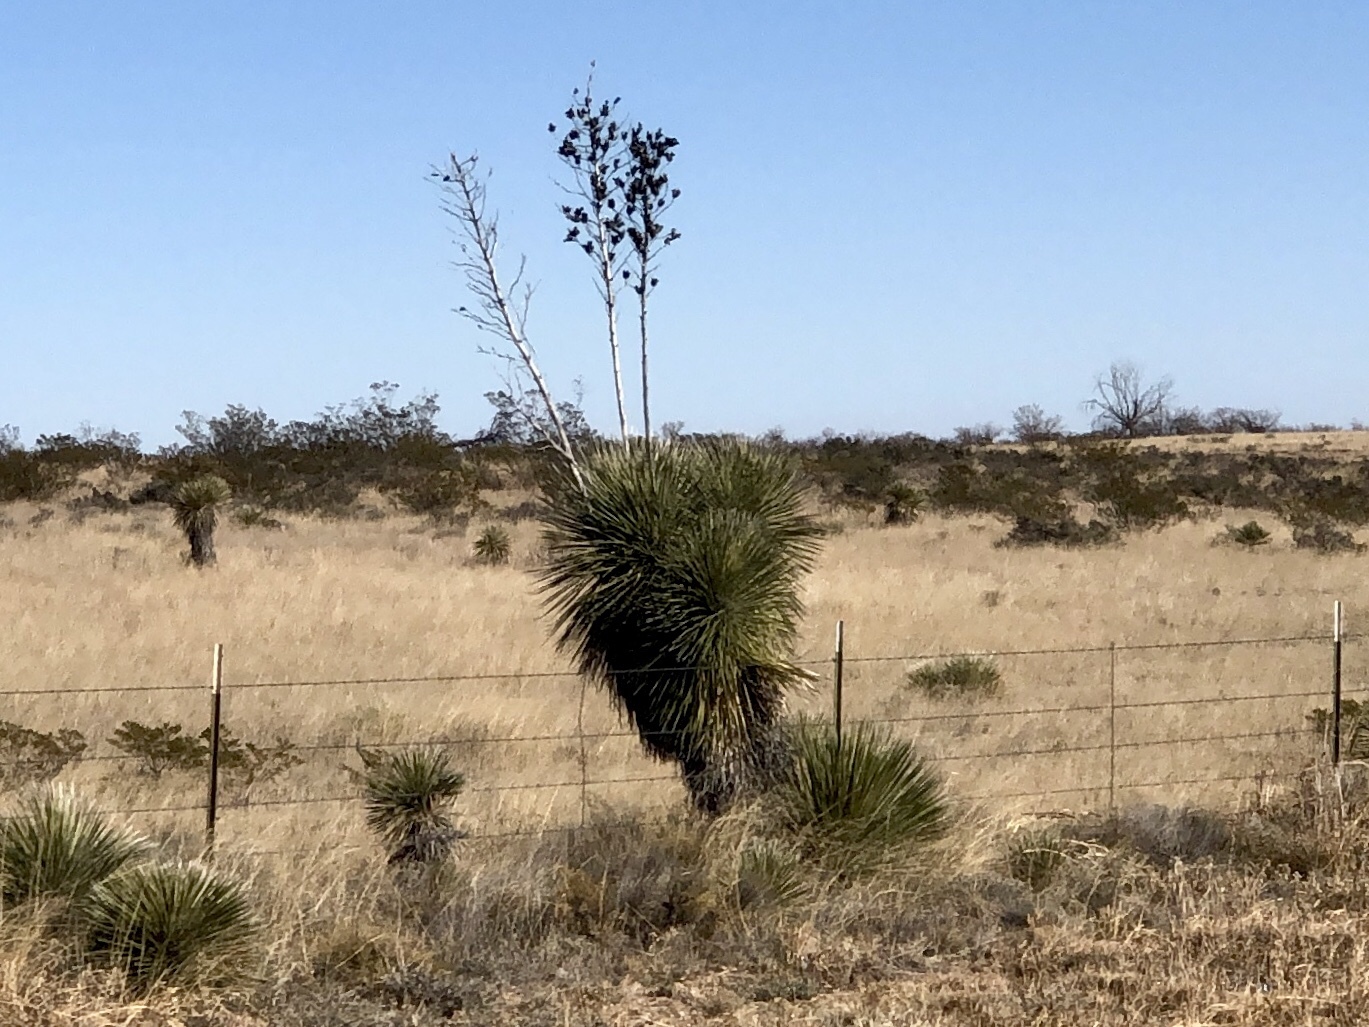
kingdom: Plantae
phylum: Tracheophyta
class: Liliopsida
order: Asparagales
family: Asparagaceae
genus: Yucca
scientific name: Yucca elata
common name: Palmella
